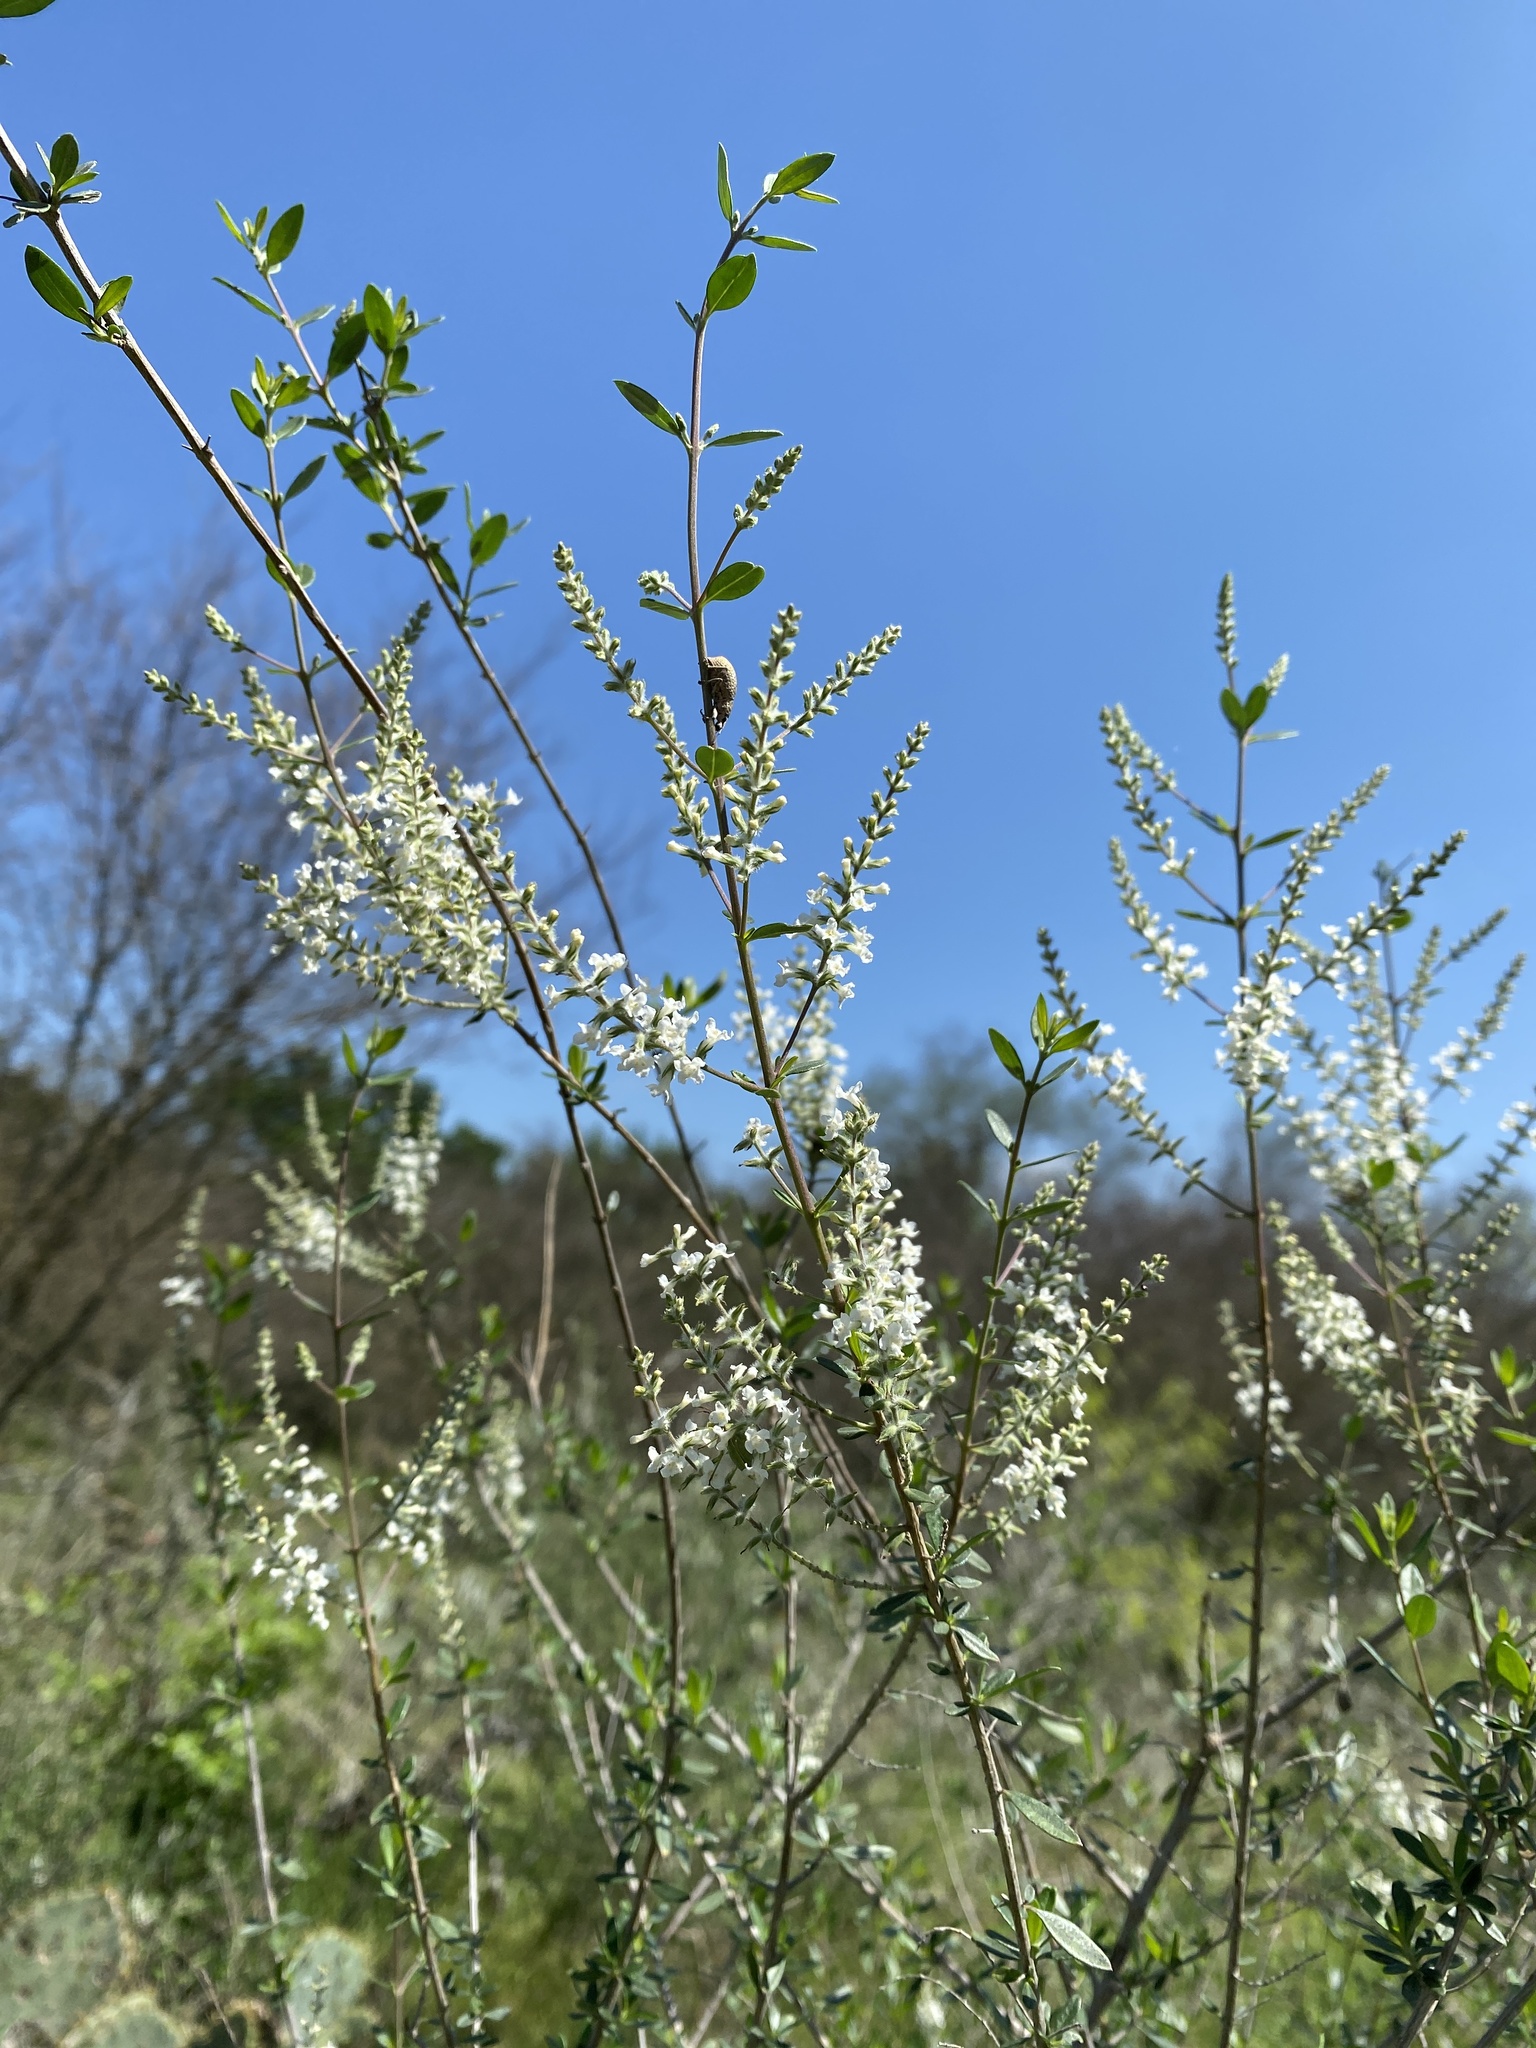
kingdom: Plantae
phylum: Tracheophyta
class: Magnoliopsida
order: Lamiales
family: Verbenaceae
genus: Aloysia
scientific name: Aloysia gratissima
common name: Common bee-brush
